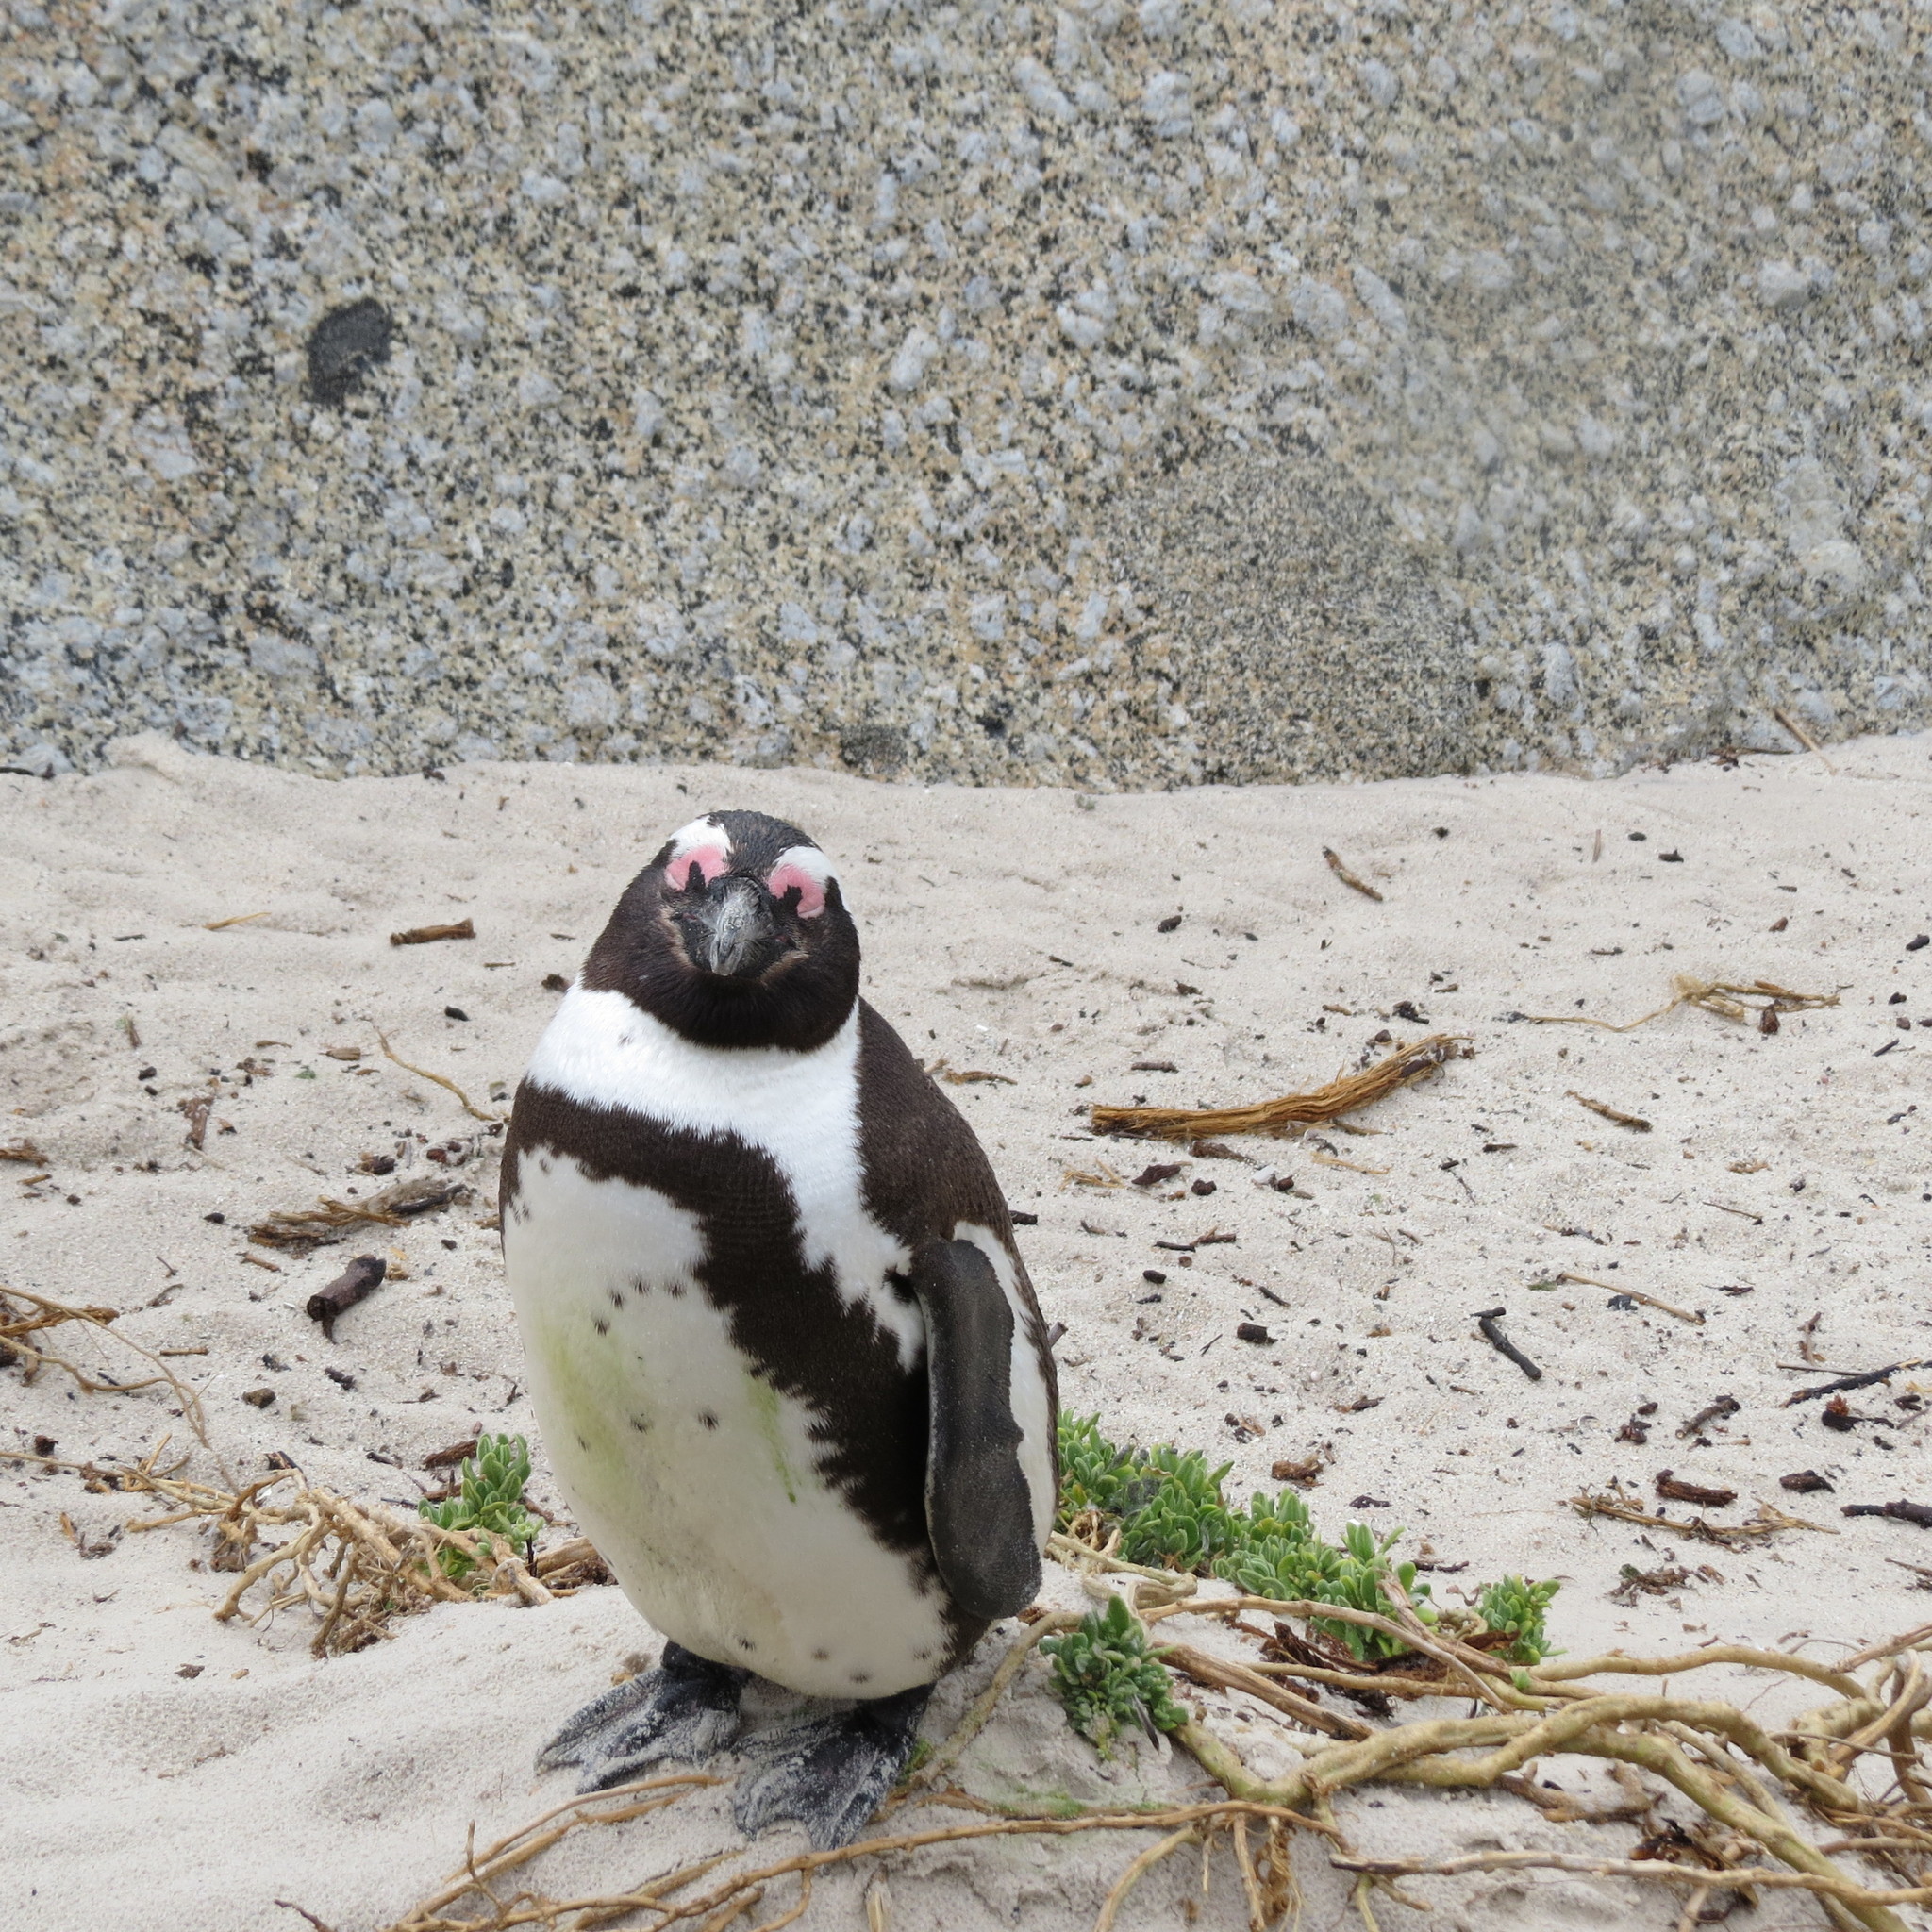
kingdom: Animalia
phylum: Chordata
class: Aves
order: Sphenisciformes
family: Spheniscidae
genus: Spheniscus
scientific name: Spheniscus demersus
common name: African penguin
